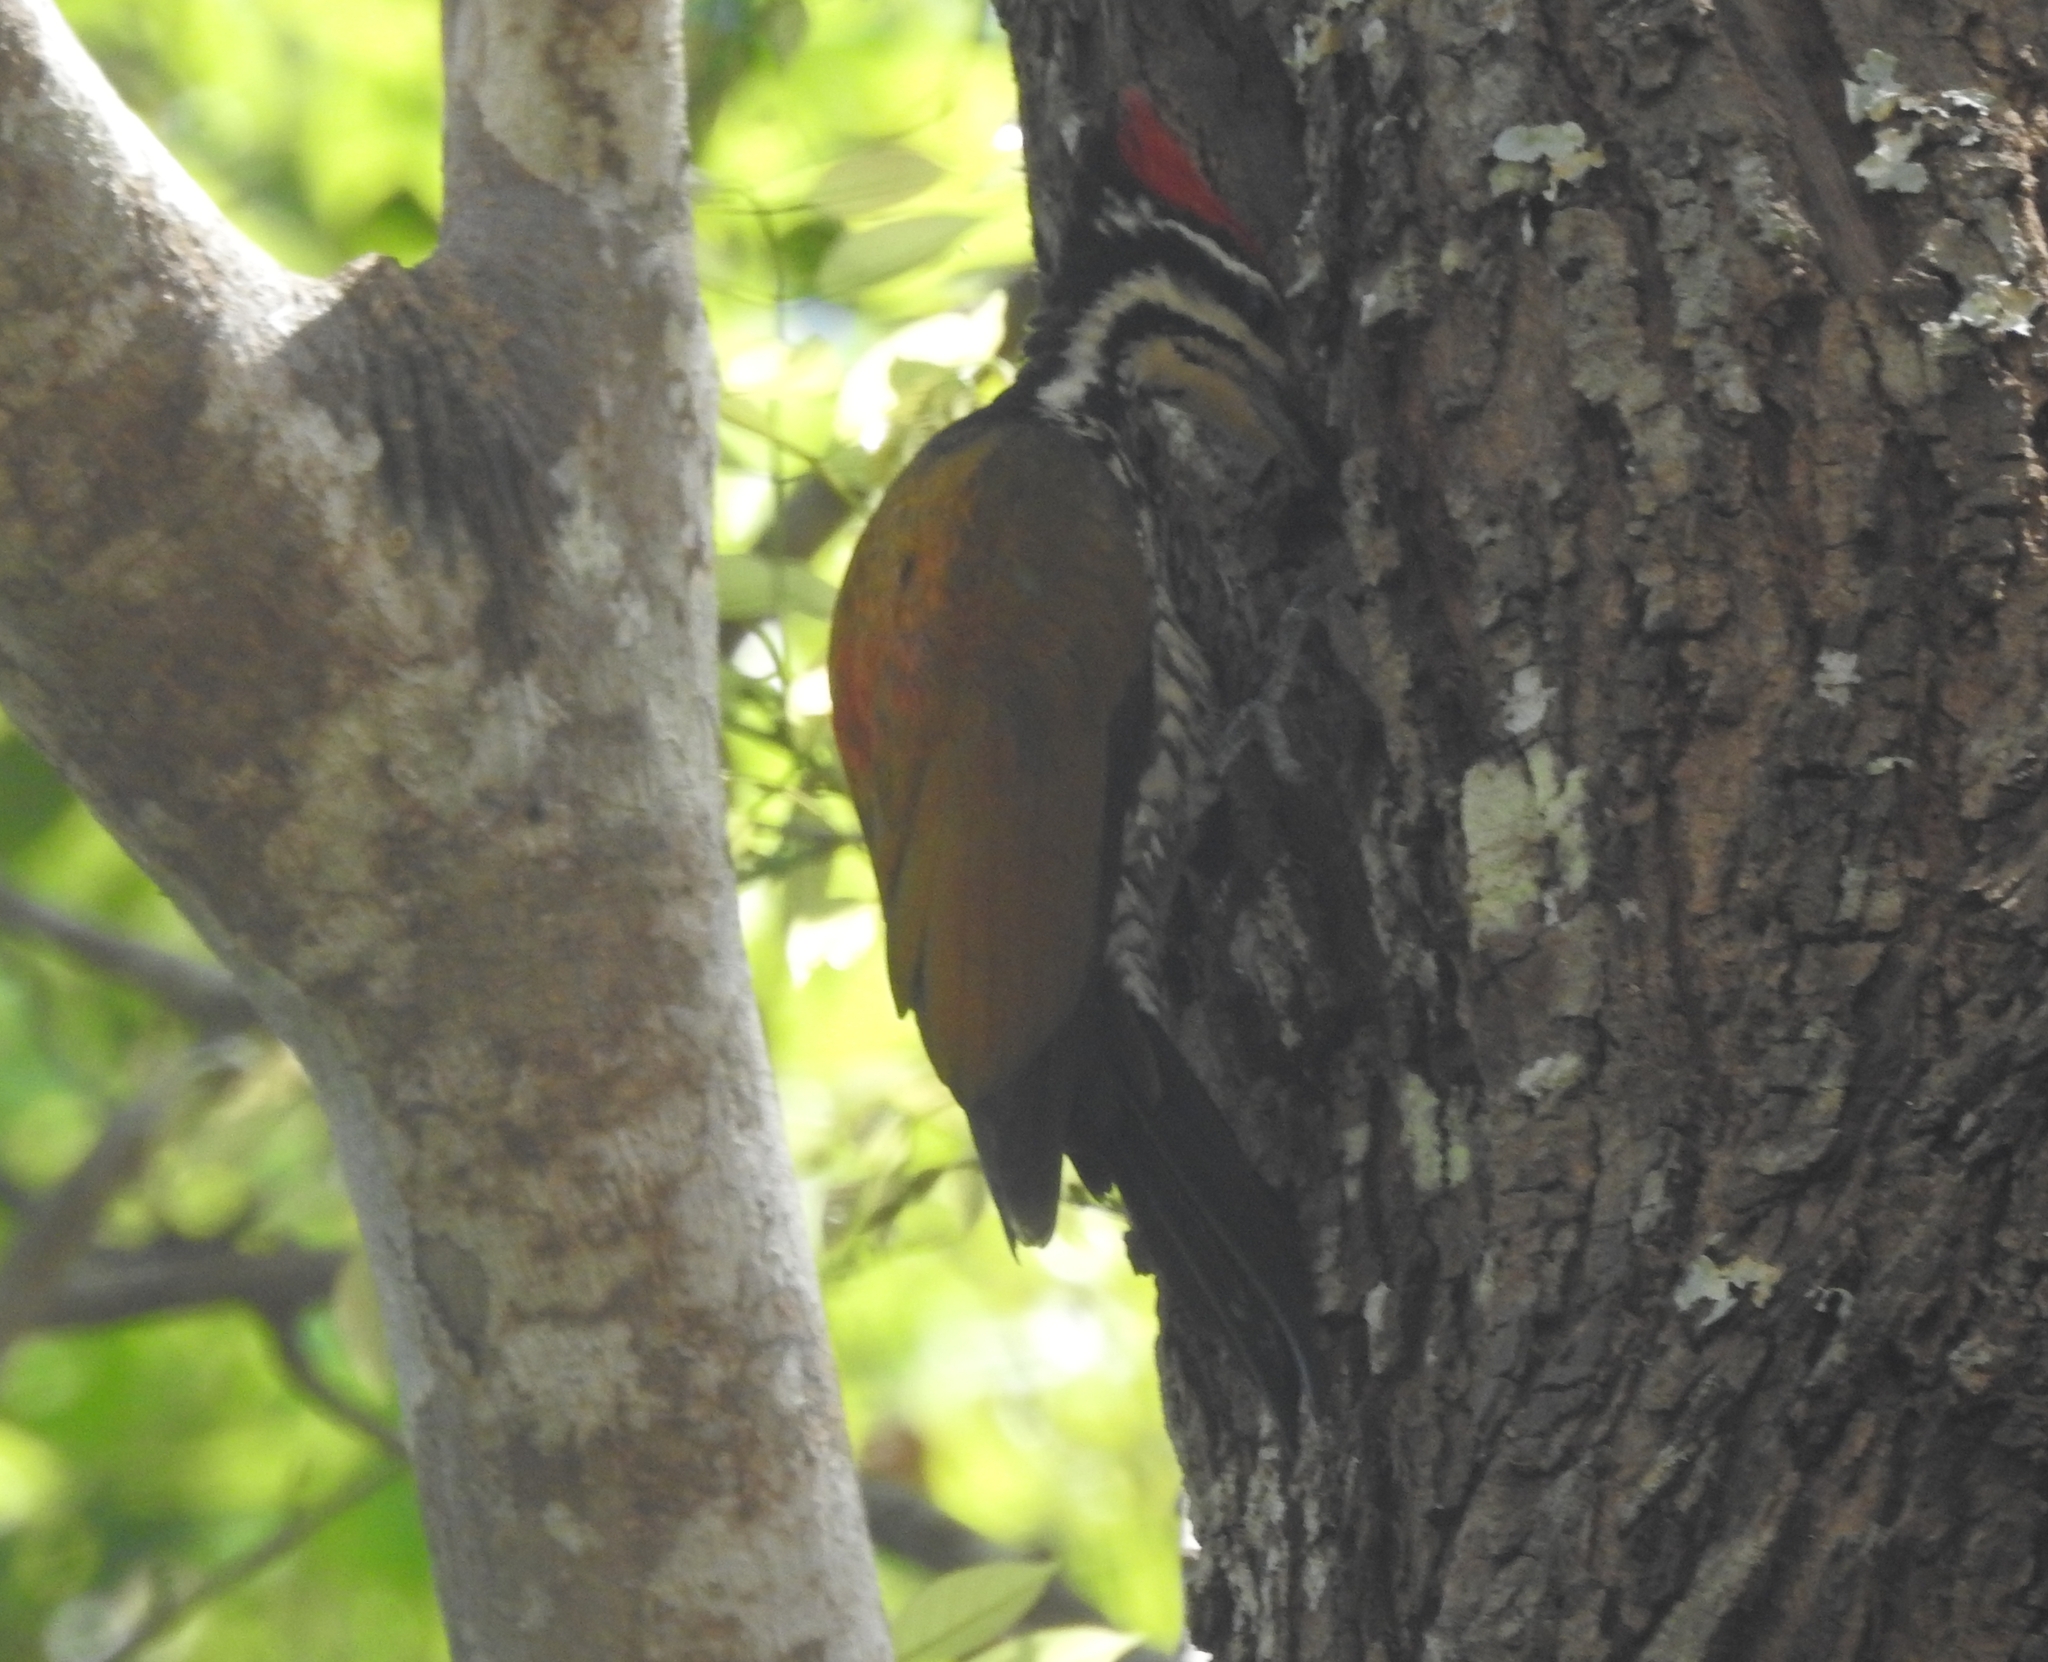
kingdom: Animalia
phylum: Chordata
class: Aves
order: Piciformes
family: Picidae
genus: Dinopium
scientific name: Dinopium javanense
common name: Common flameback
